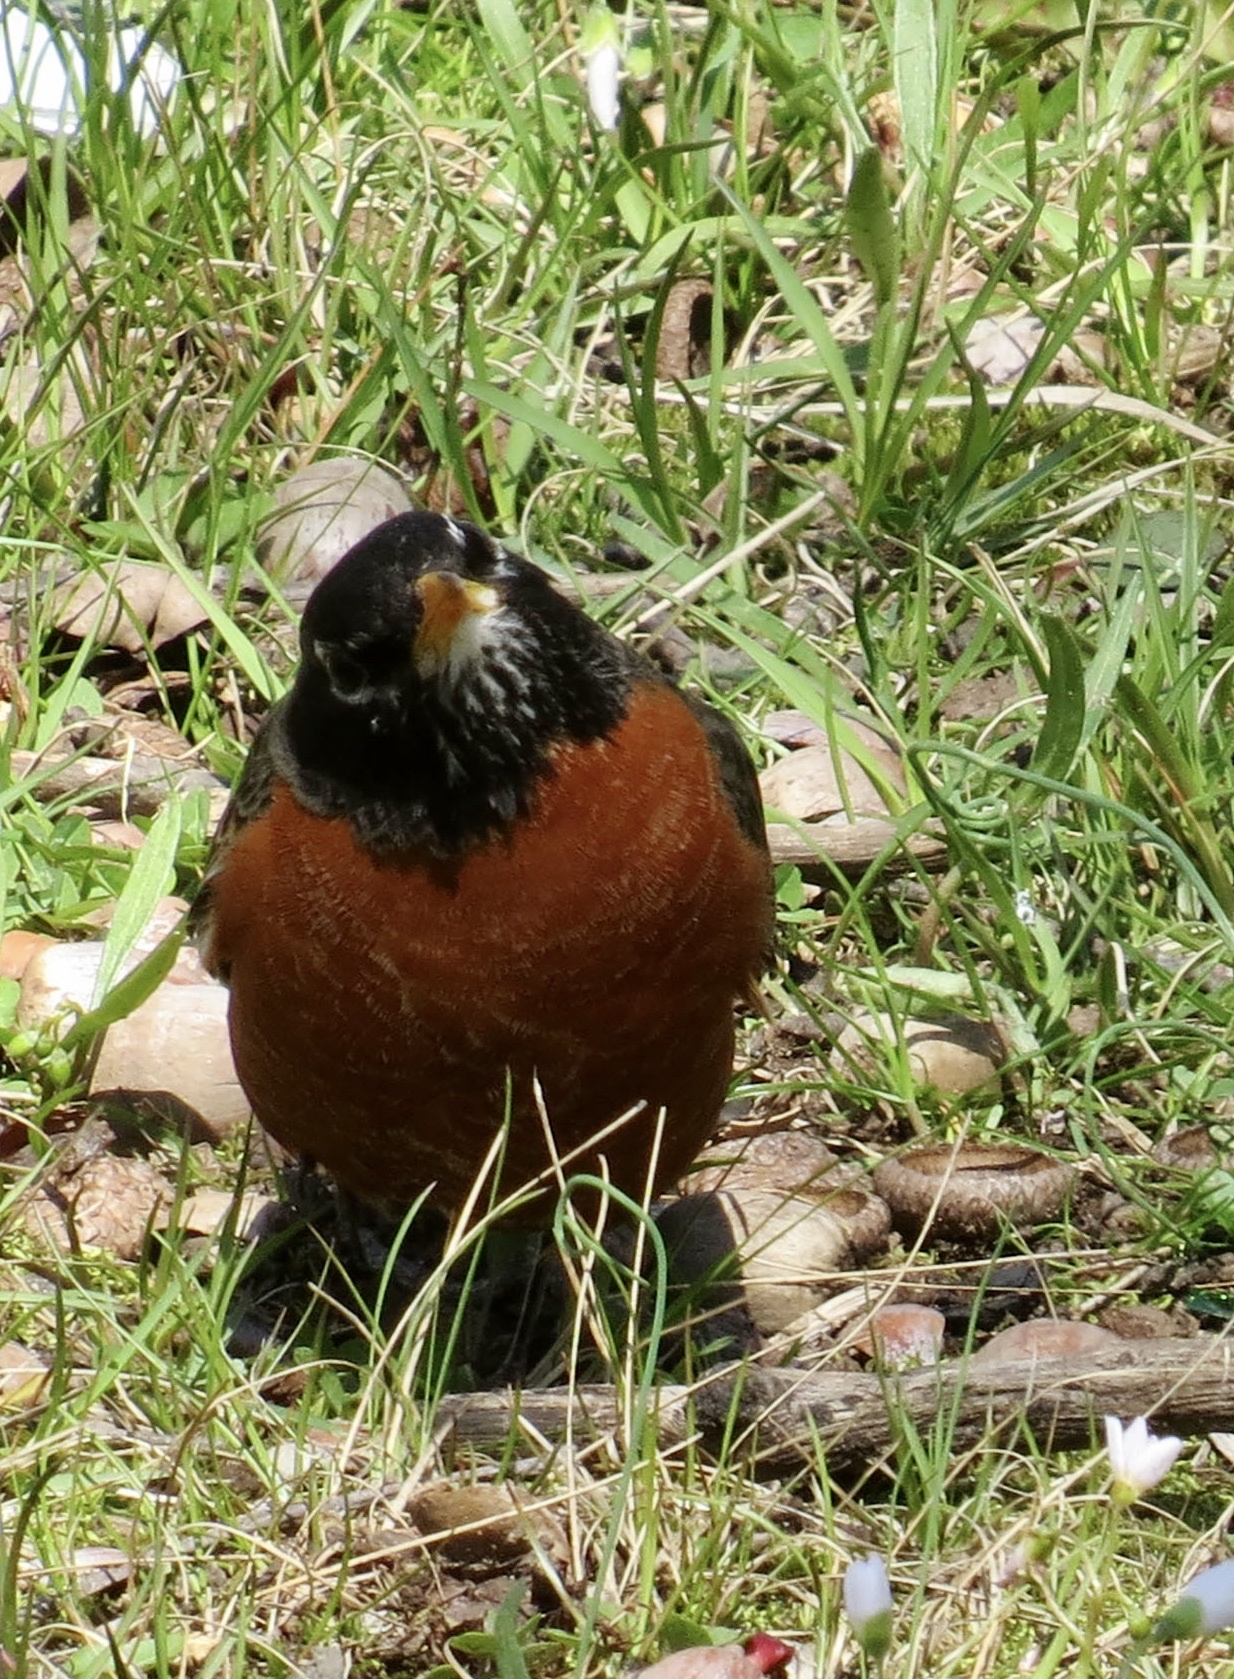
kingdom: Animalia
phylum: Chordata
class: Aves
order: Passeriformes
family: Turdidae
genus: Turdus
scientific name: Turdus migratorius
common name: American robin
